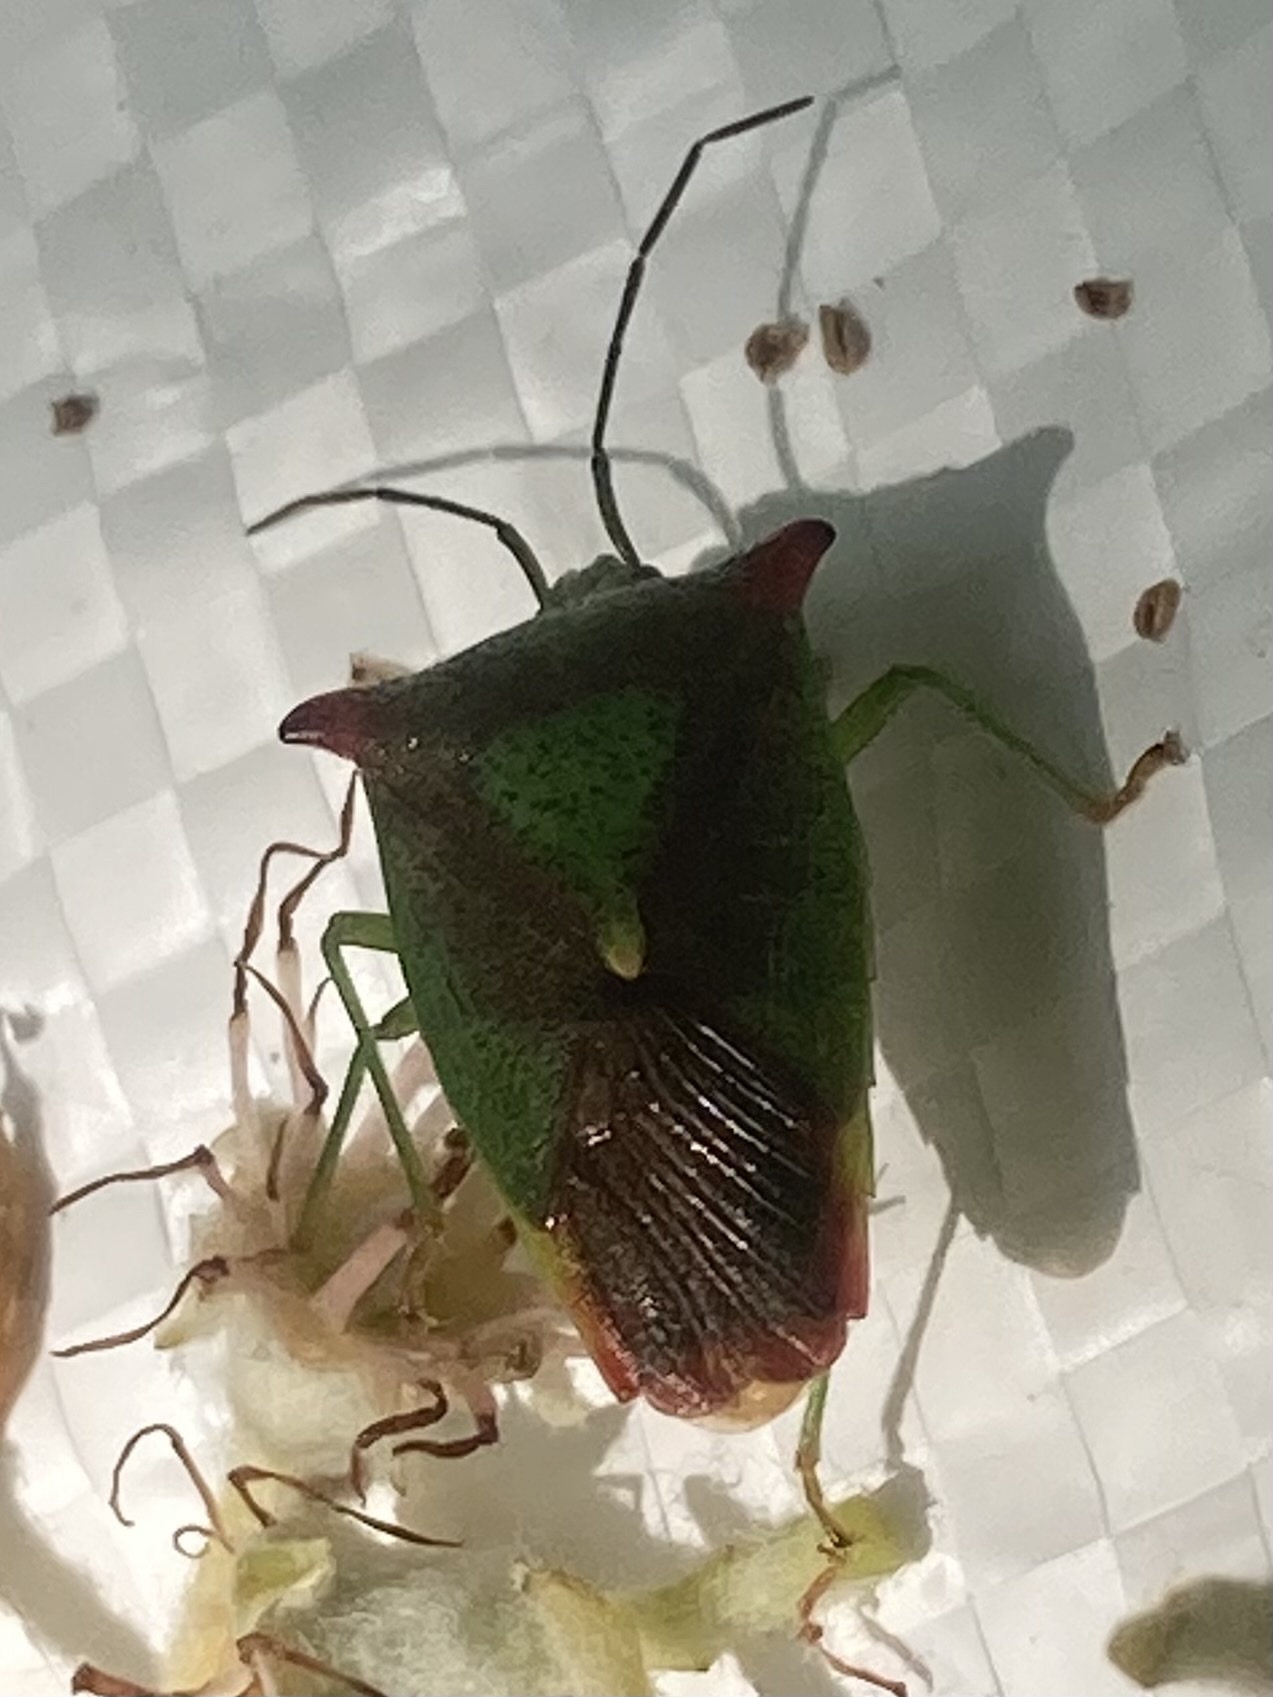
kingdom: Animalia
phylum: Arthropoda
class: Insecta
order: Hemiptera
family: Acanthosomatidae
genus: Acanthosoma
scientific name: Acanthosoma haemorrhoidale
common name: Hawthorn shieldbug
